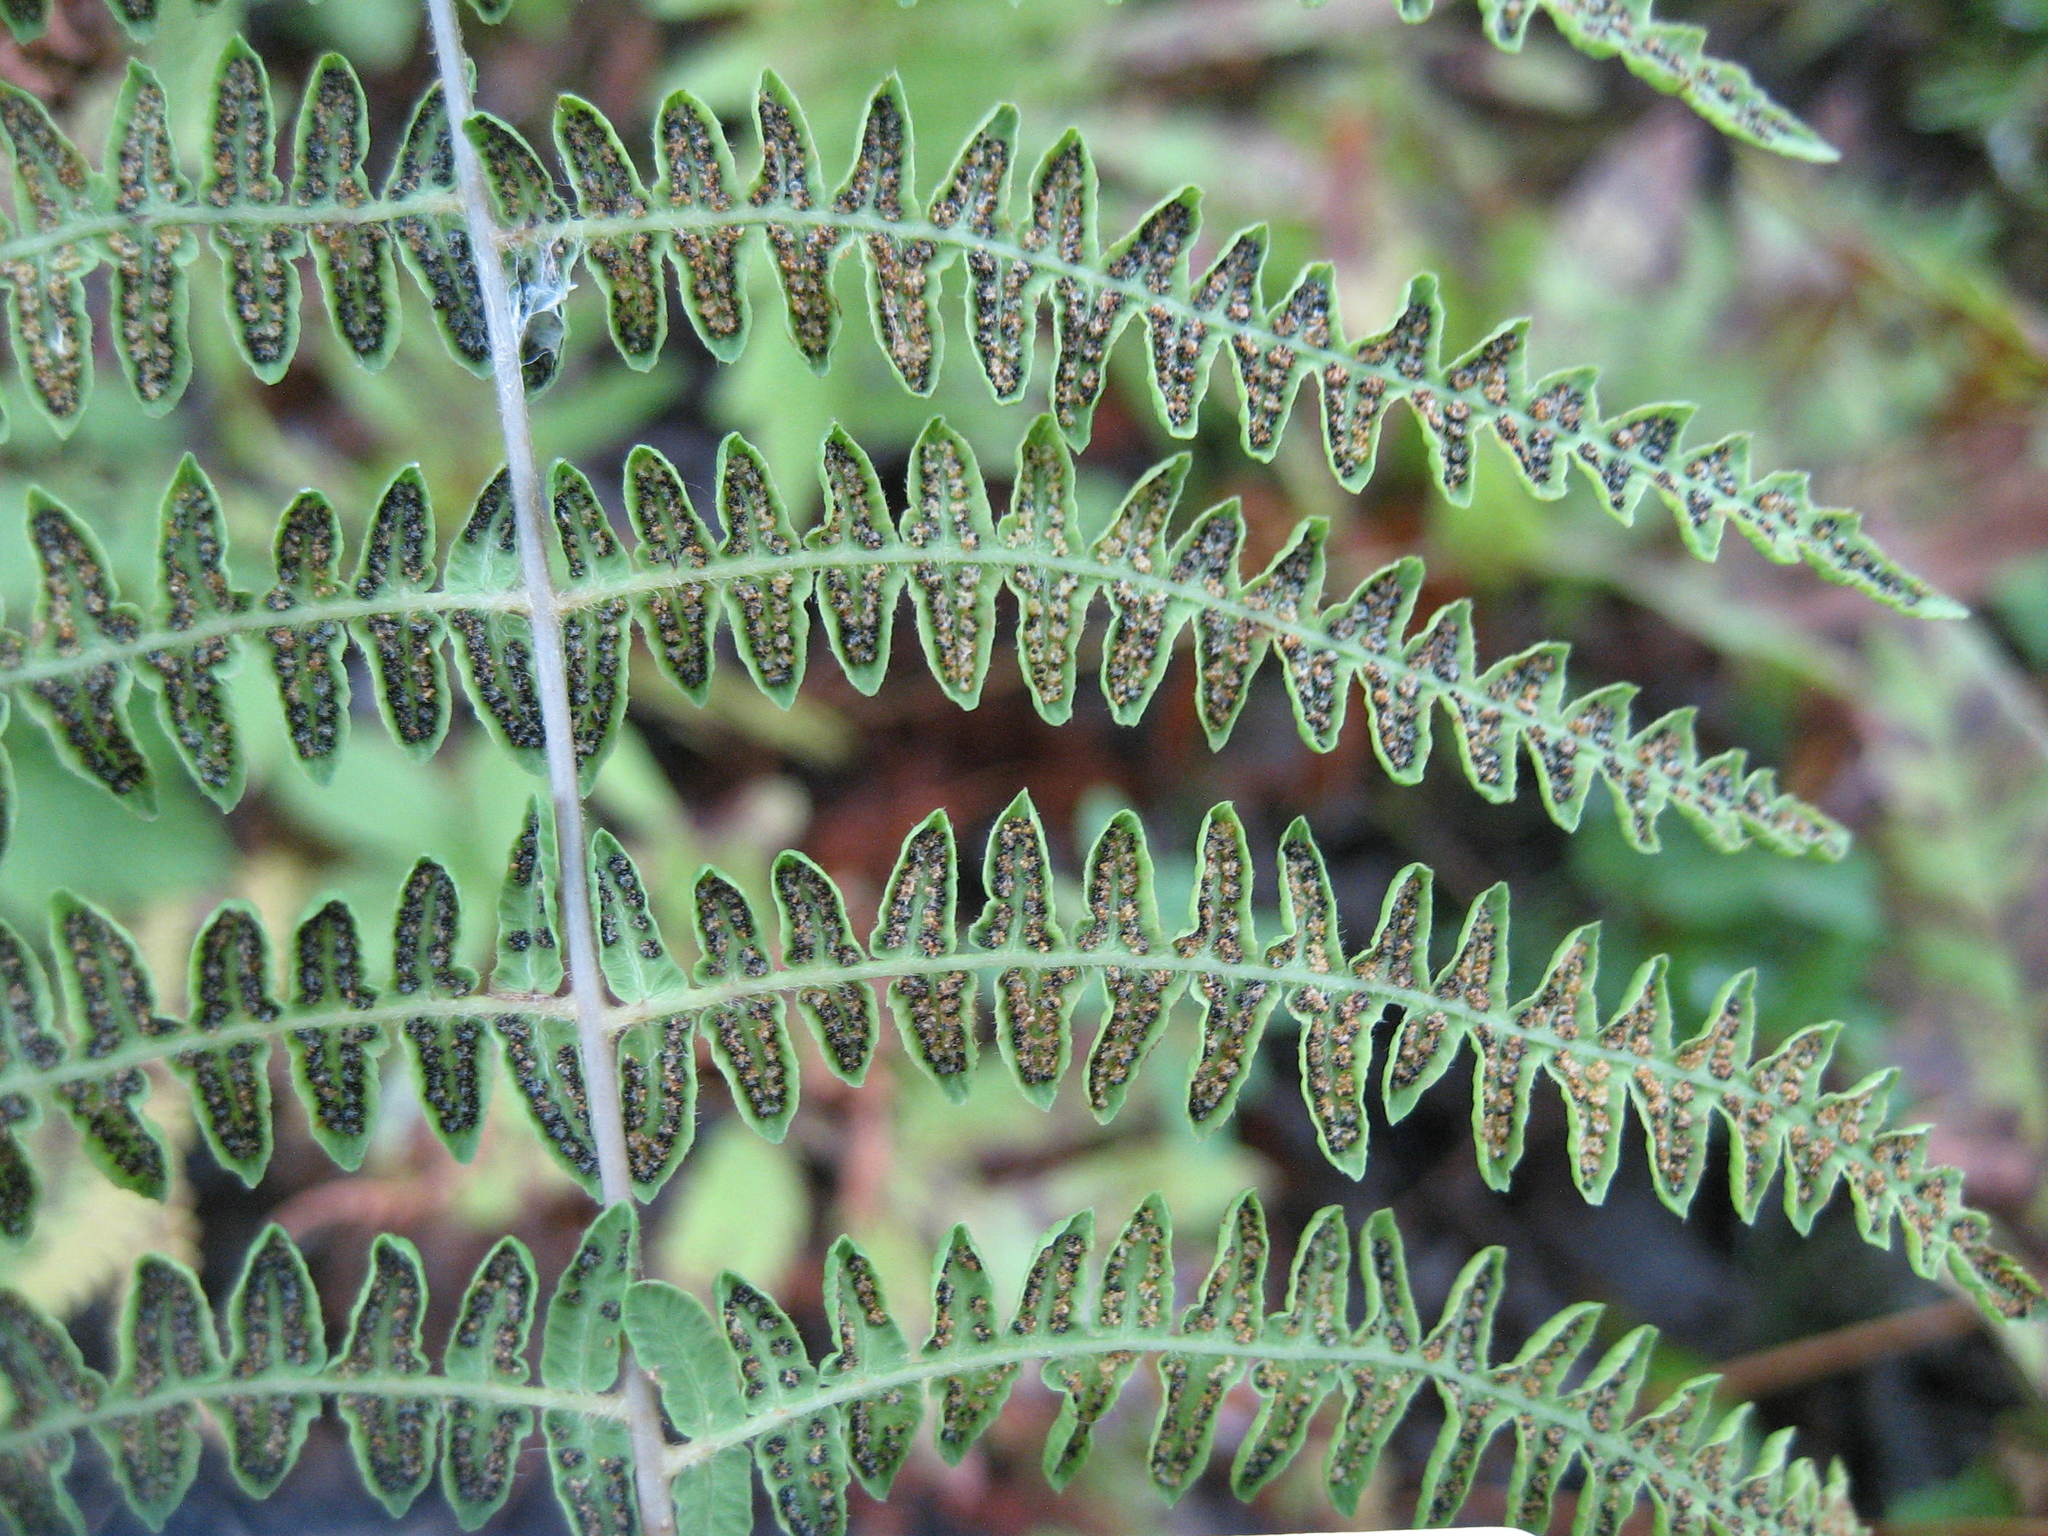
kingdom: Plantae
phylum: Tracheophyta
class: Polypodiopsida
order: Polypodiales
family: Thelypteridaceae
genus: Thelypteris
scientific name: Thelypteris palustris
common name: Marsh fern
